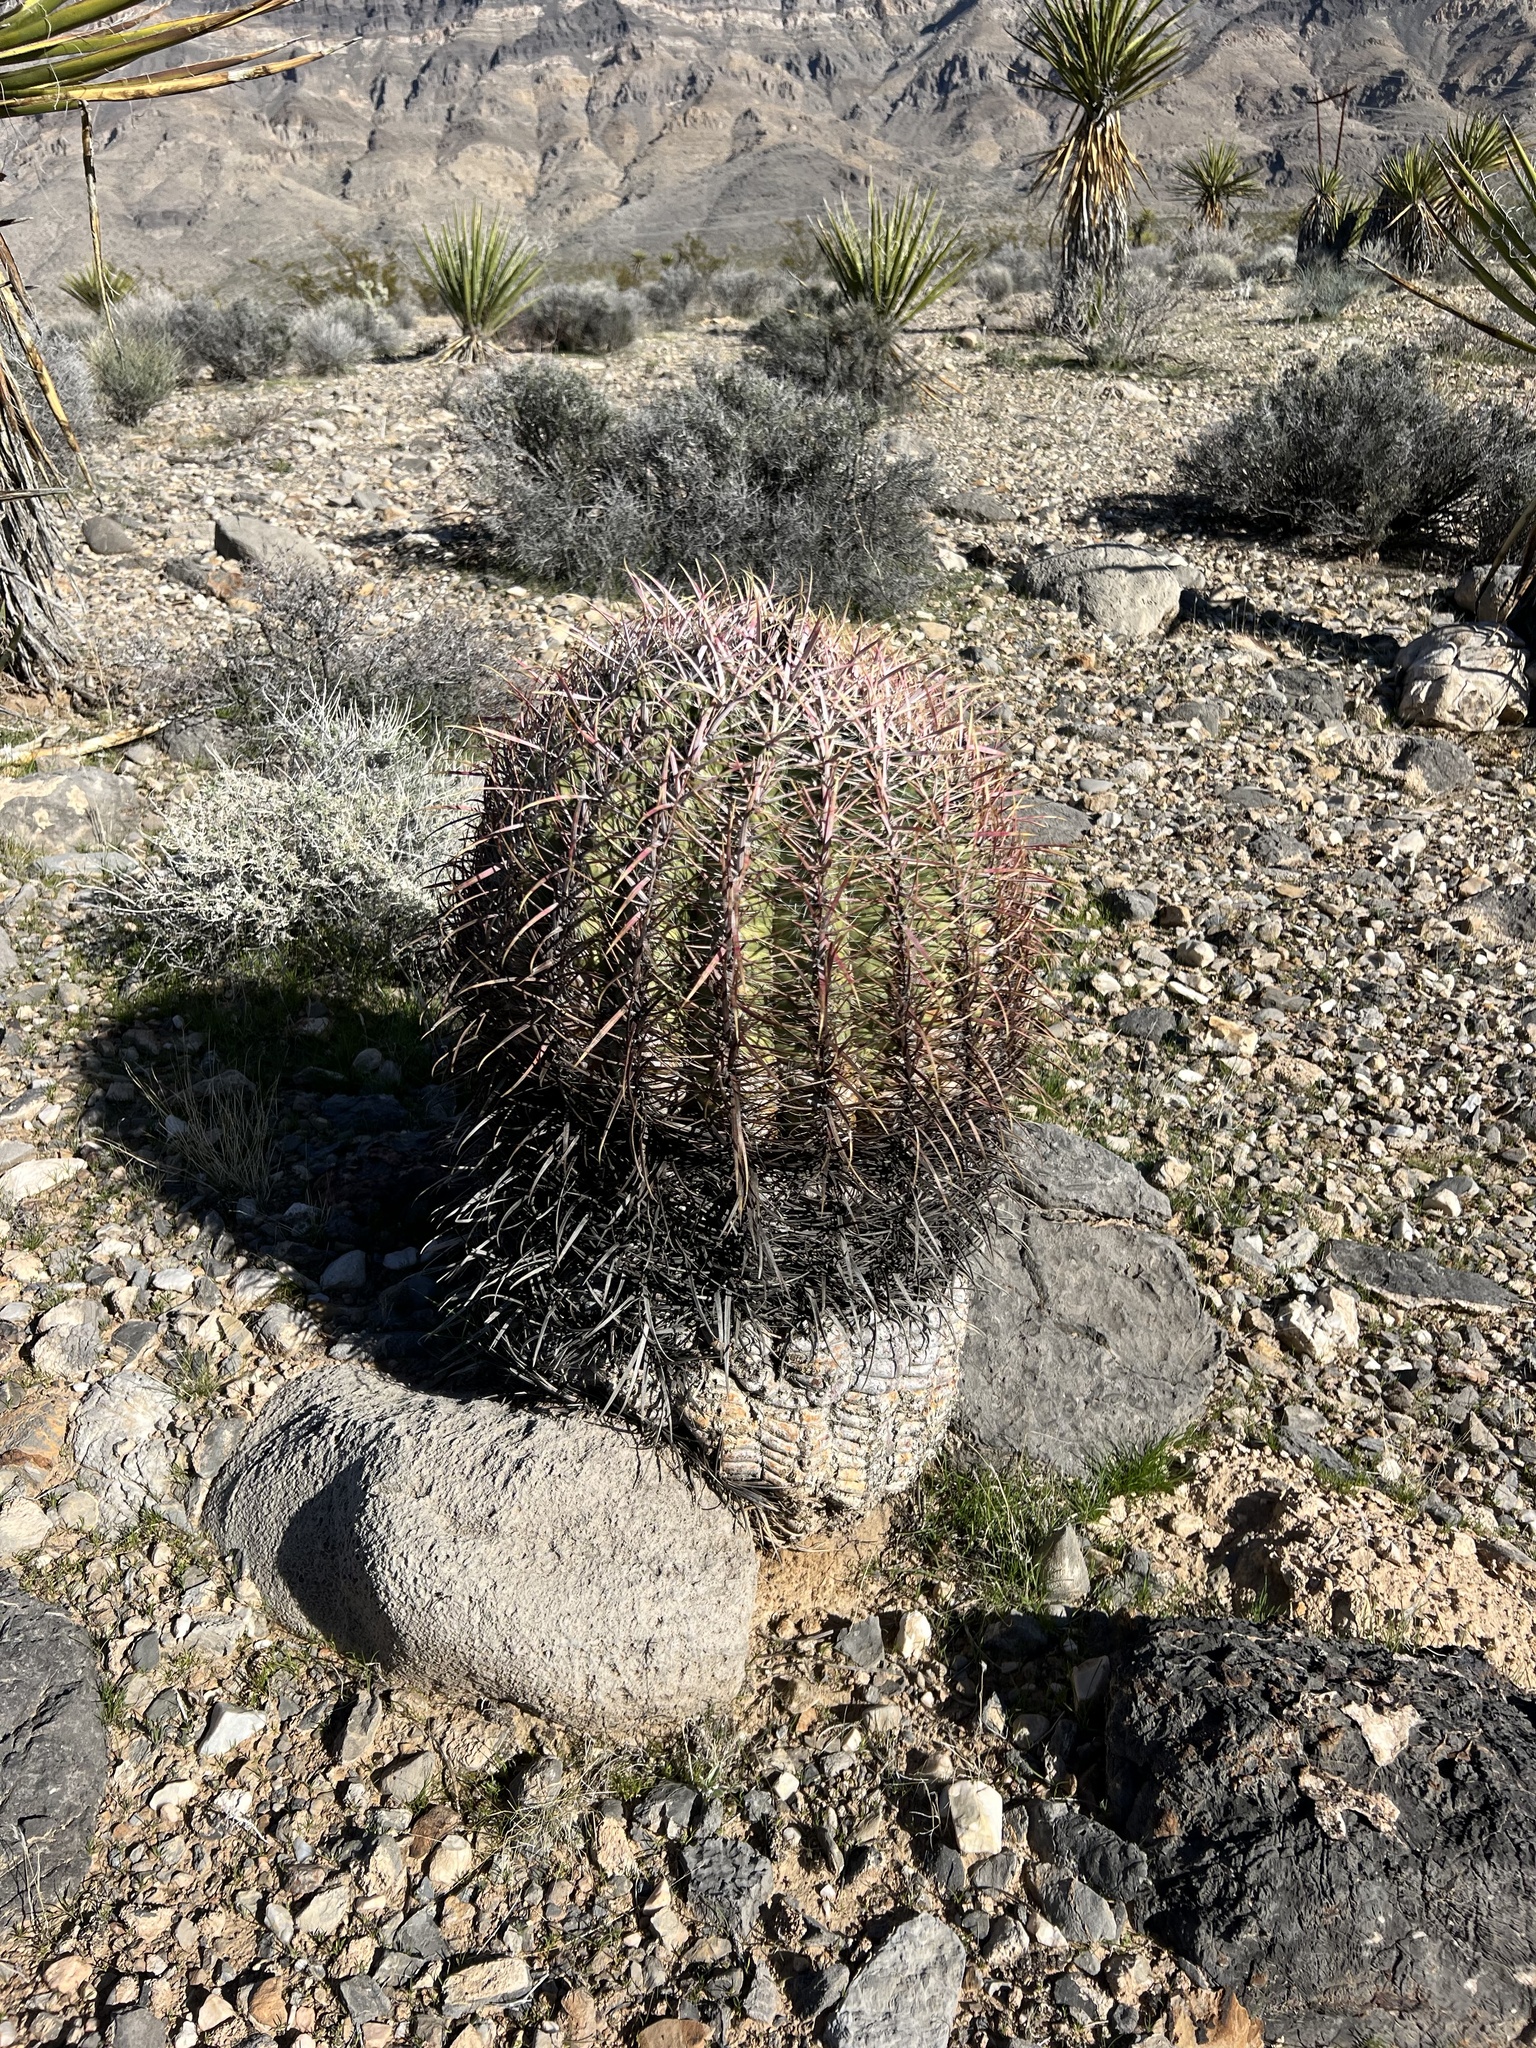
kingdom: Plantae
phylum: Tracheophyta
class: Magnoliopsida
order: Caryophyllales
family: Cactaceae
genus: Ferocactus
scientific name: Ferocactus cylindraceus
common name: California barrel cactus
